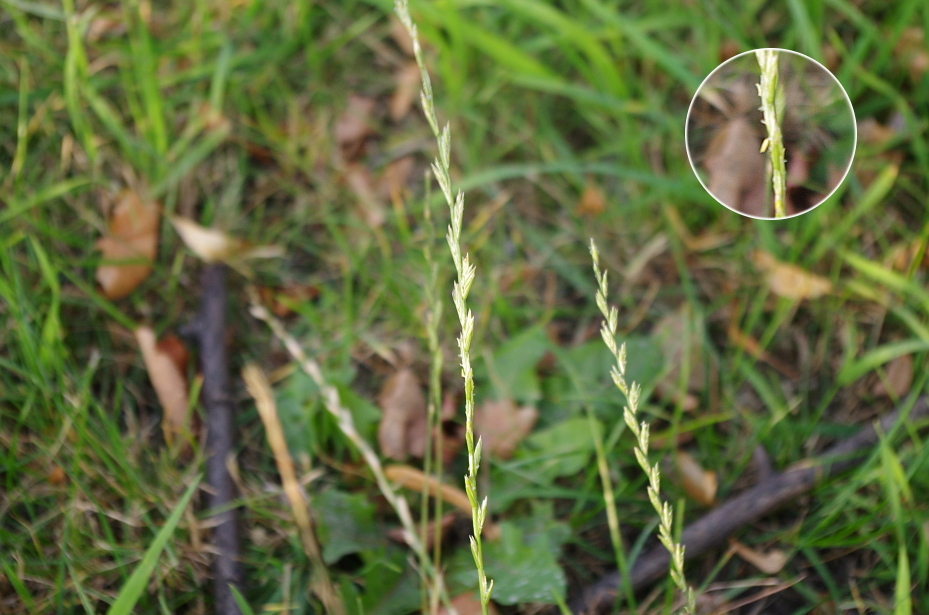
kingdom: Plantae
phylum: Tracheophyta
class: Liliopsida
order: Poales
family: Poaceae
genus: Lolium
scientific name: Lolium perenne
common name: Perennial ryegrass
